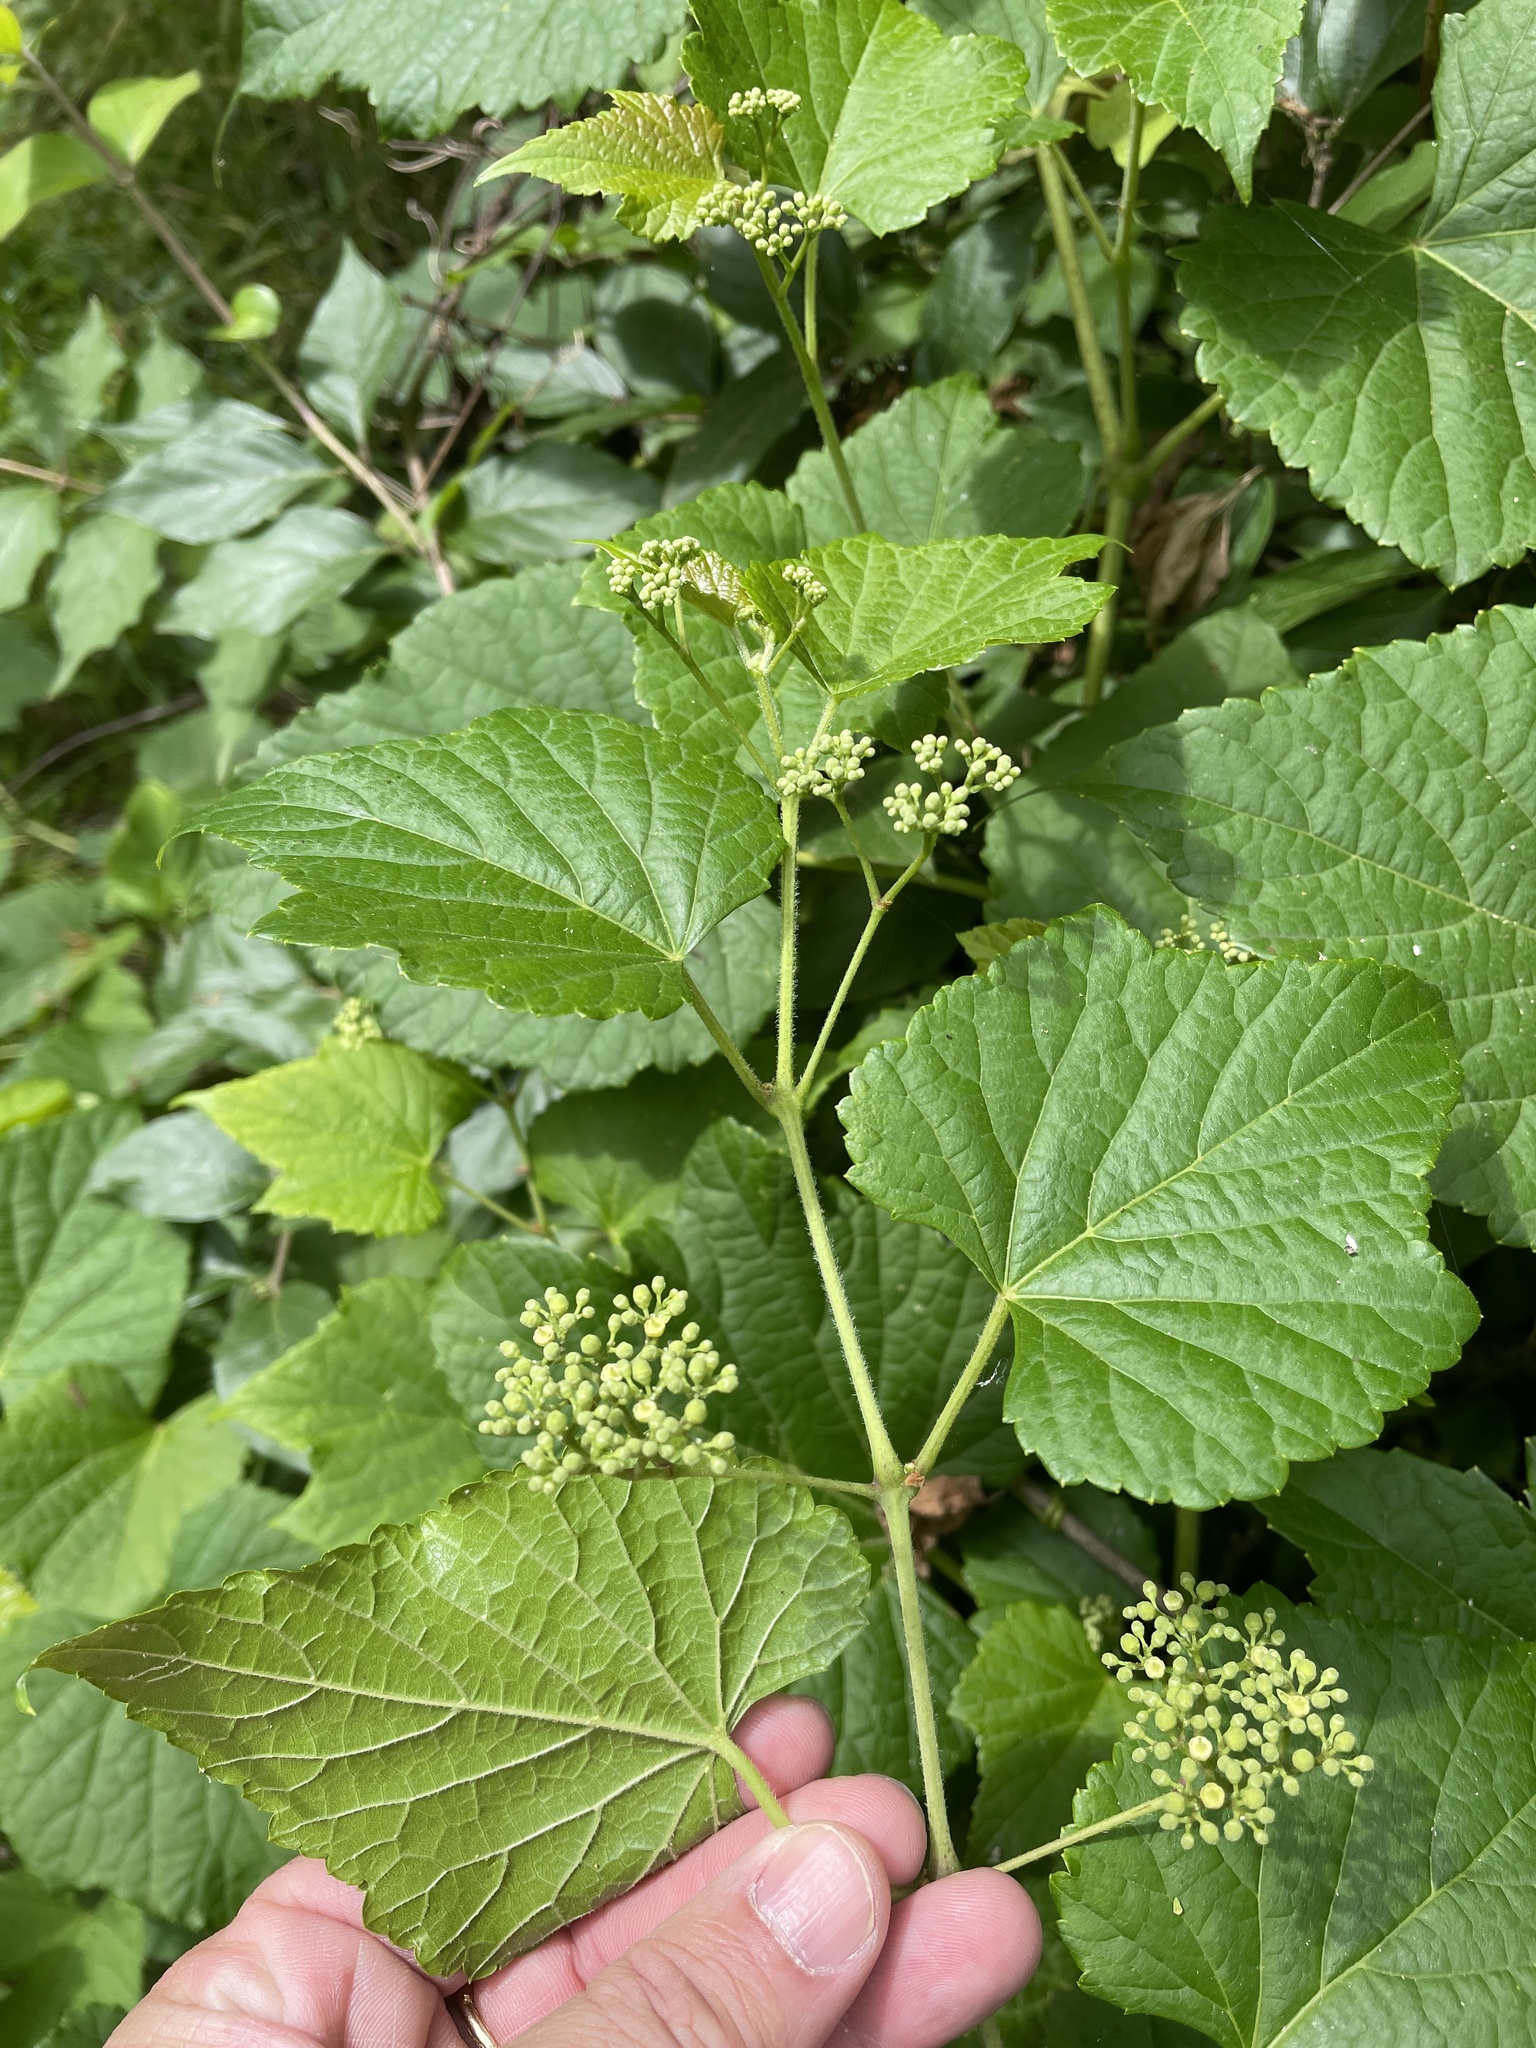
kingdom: Plantae
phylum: Tracheophyta
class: Magnoliopsida
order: Vitales
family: Vitaceae
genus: Ampelopsis
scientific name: Ampelopsis glandulosa
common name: Amur peppervine
